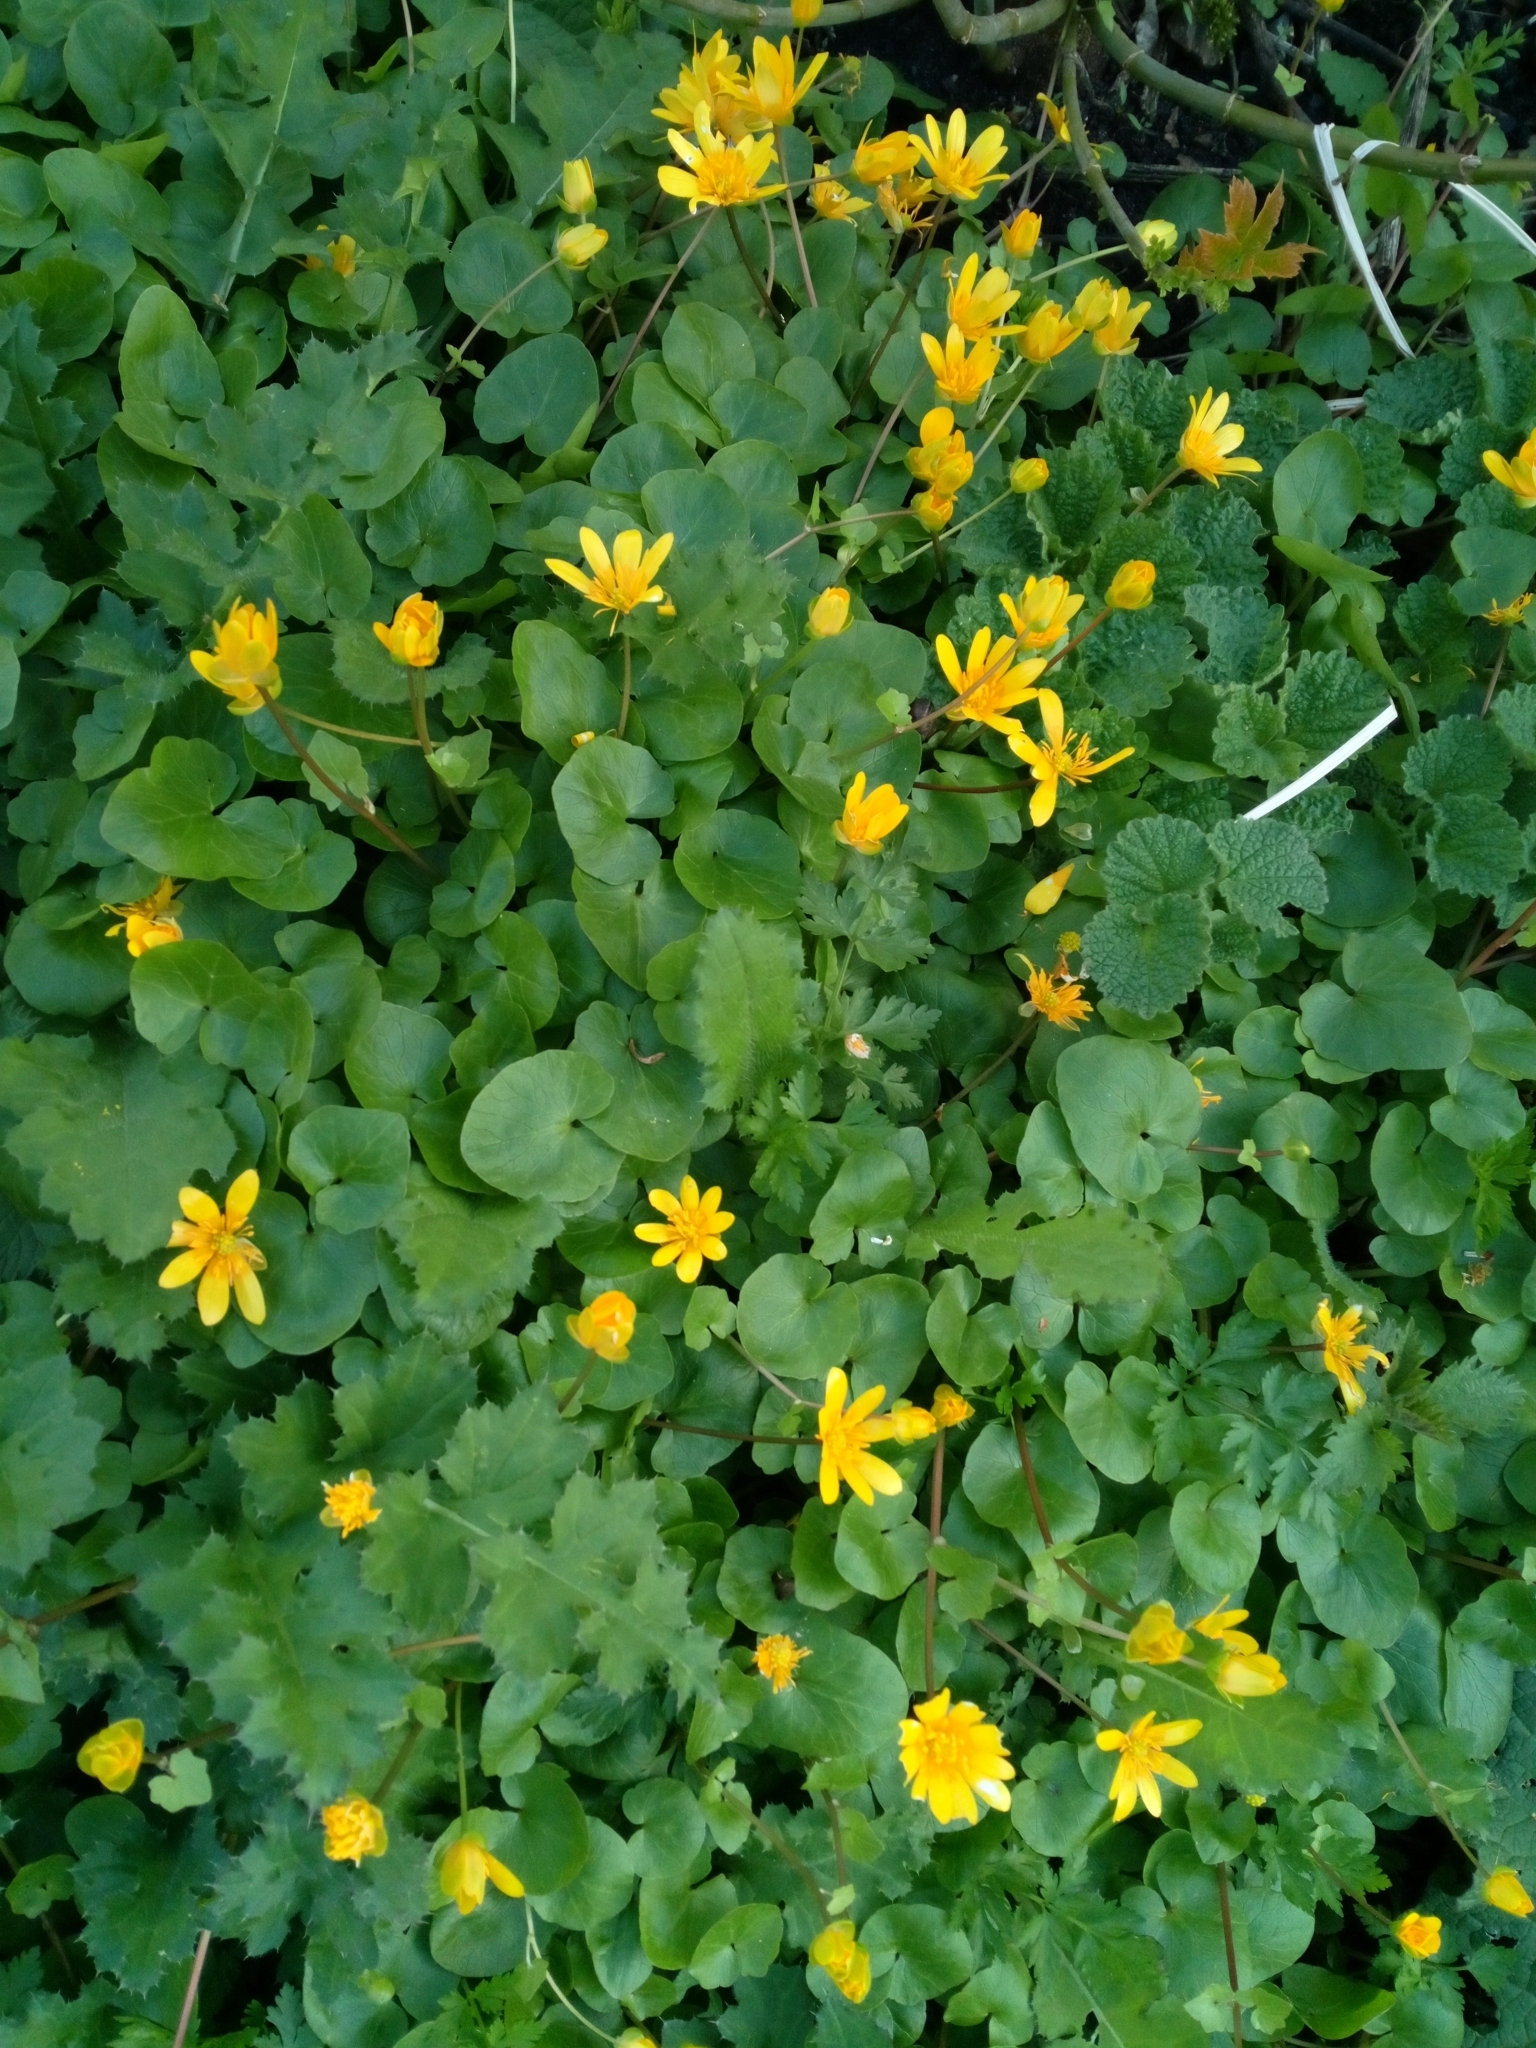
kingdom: Plantae
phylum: Tracheophyta
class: Magnoliopsida
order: Ranunculales
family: Ranunculaceae
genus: Ficaria
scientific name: Ficaria verna
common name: Lesser celandine
